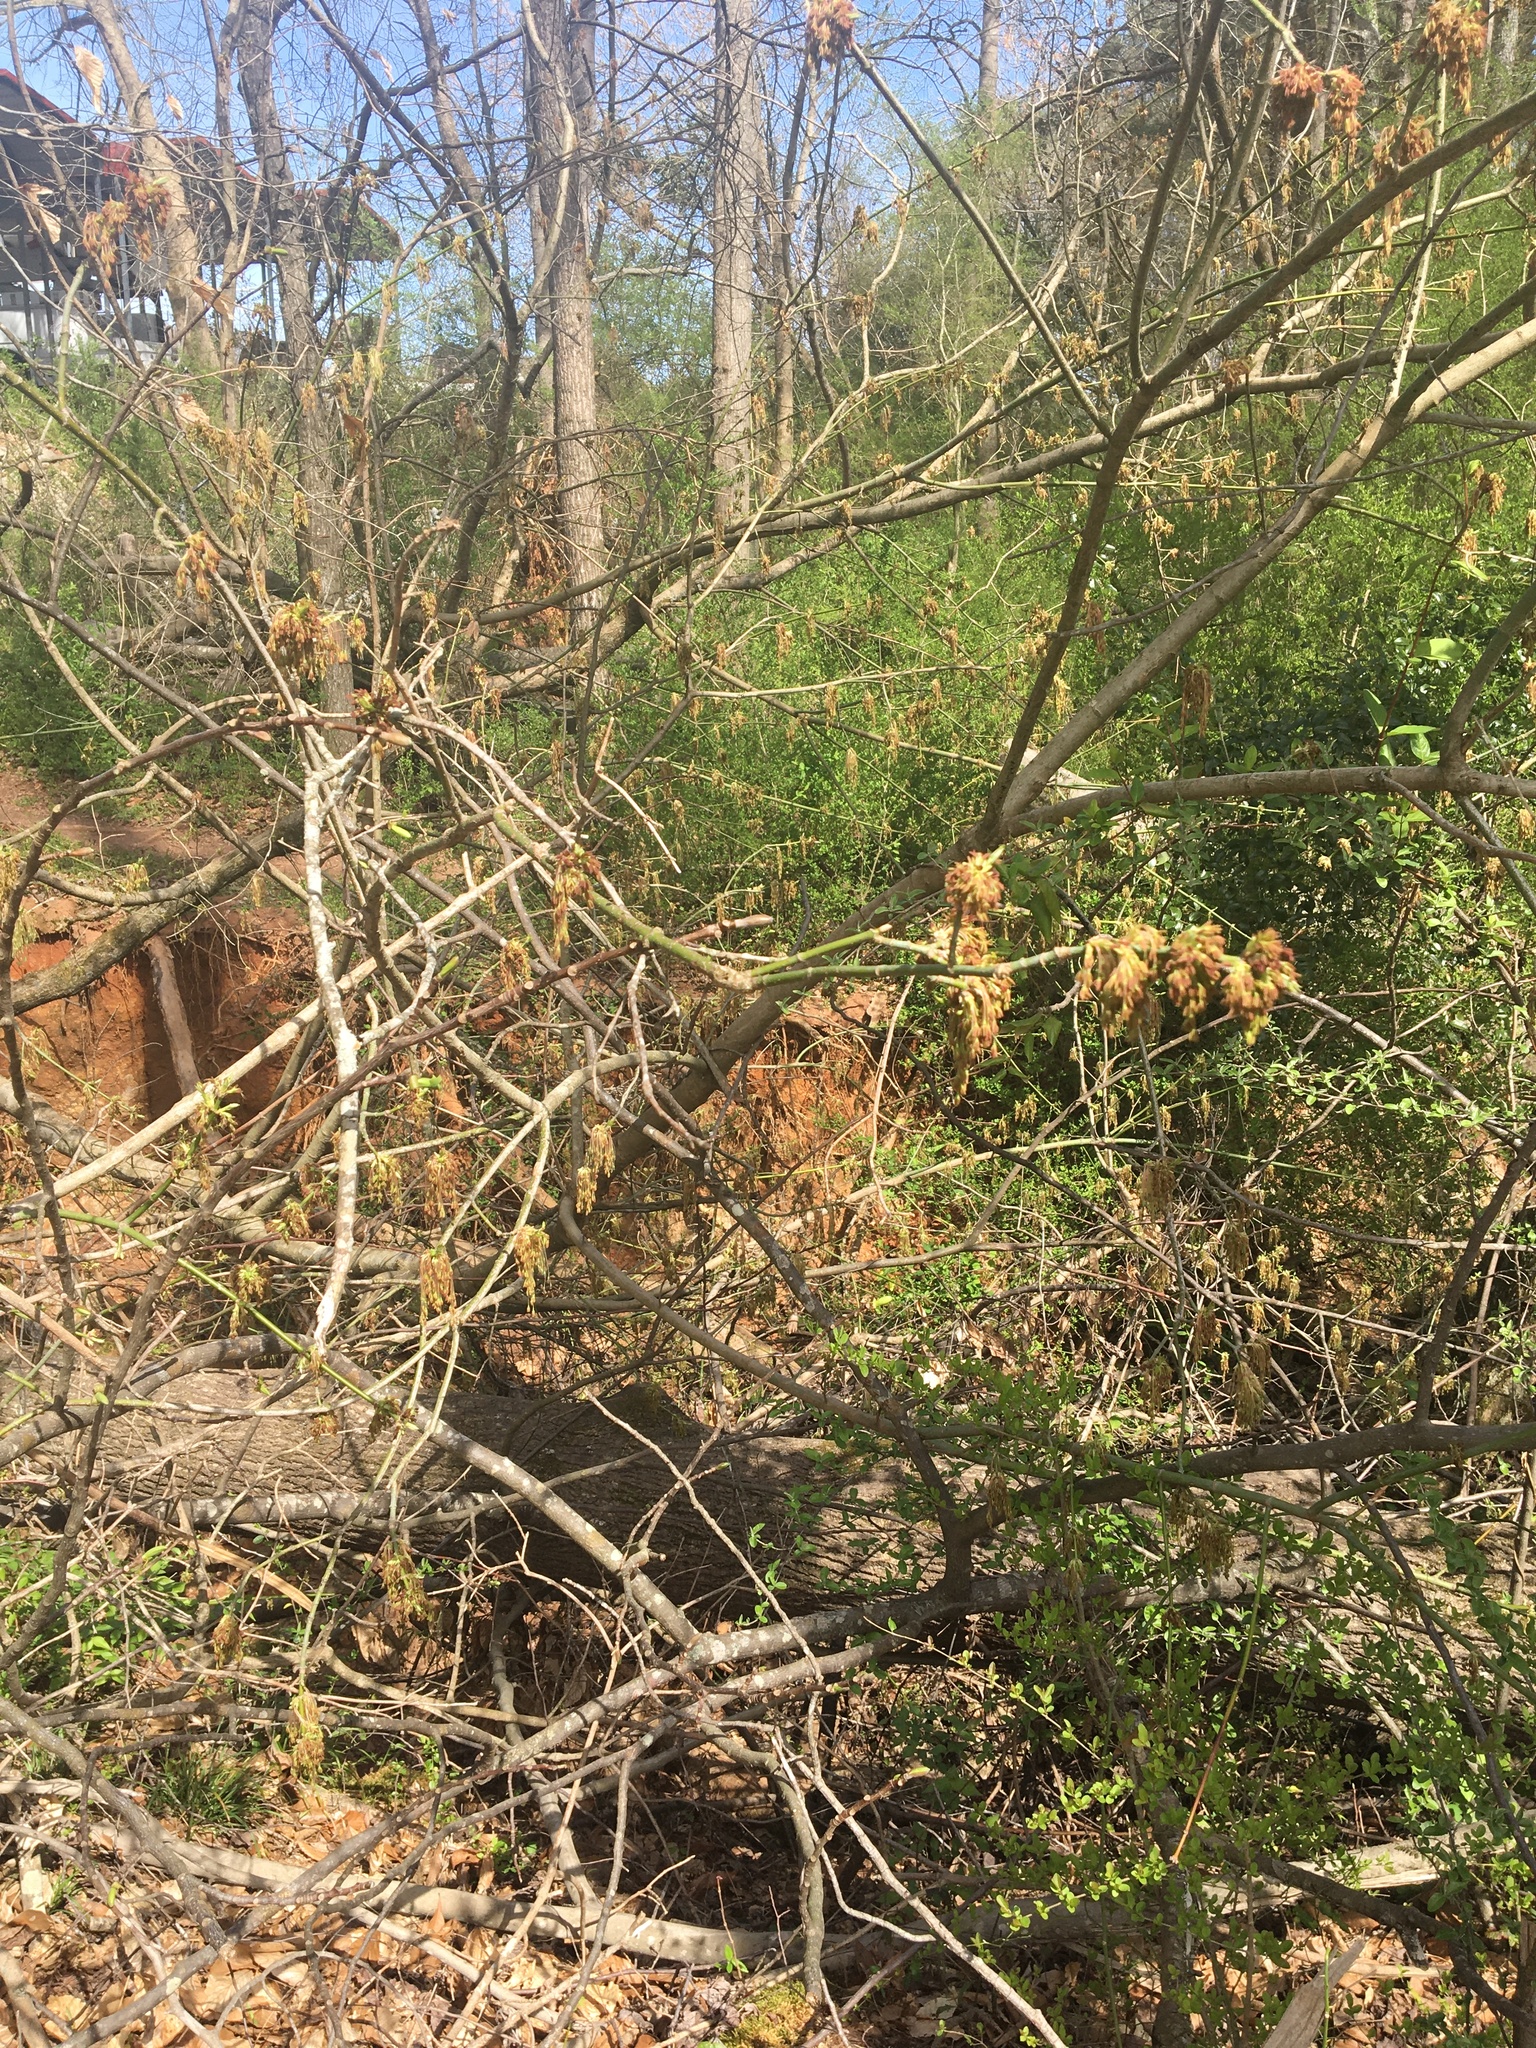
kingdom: Plantae
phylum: Tracheophyta
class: Magnoliopsida
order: Sapindales
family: Sapindaceae
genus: Acer
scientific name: Acer negundo
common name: Ashleaf maple
